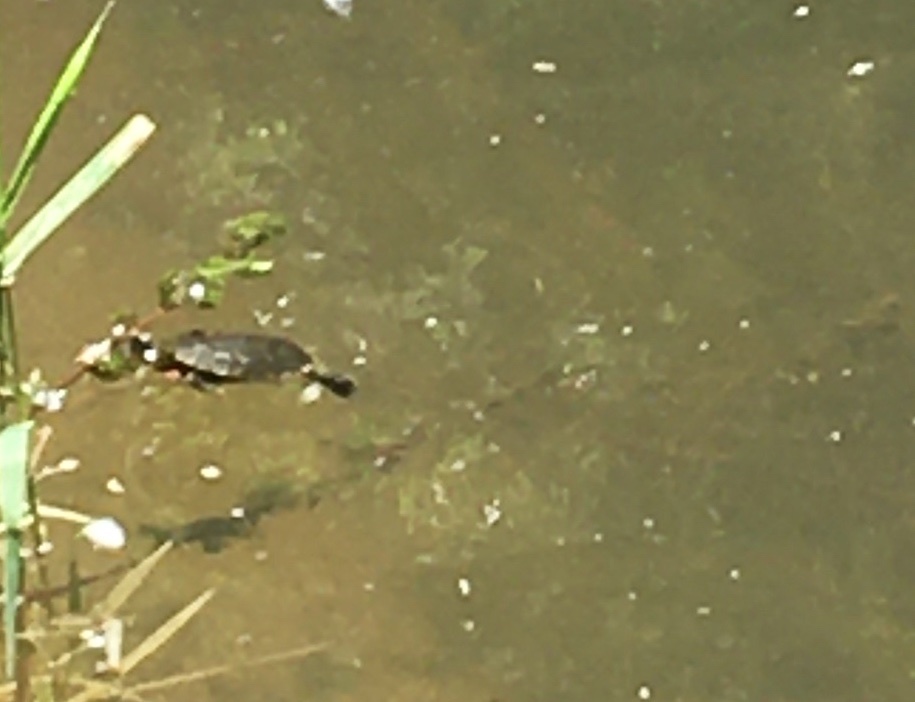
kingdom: Animalia
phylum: Chordata
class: Testudines
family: Emydidae
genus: Chrysemys
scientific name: Chrysemys picta
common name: Painted turtle
